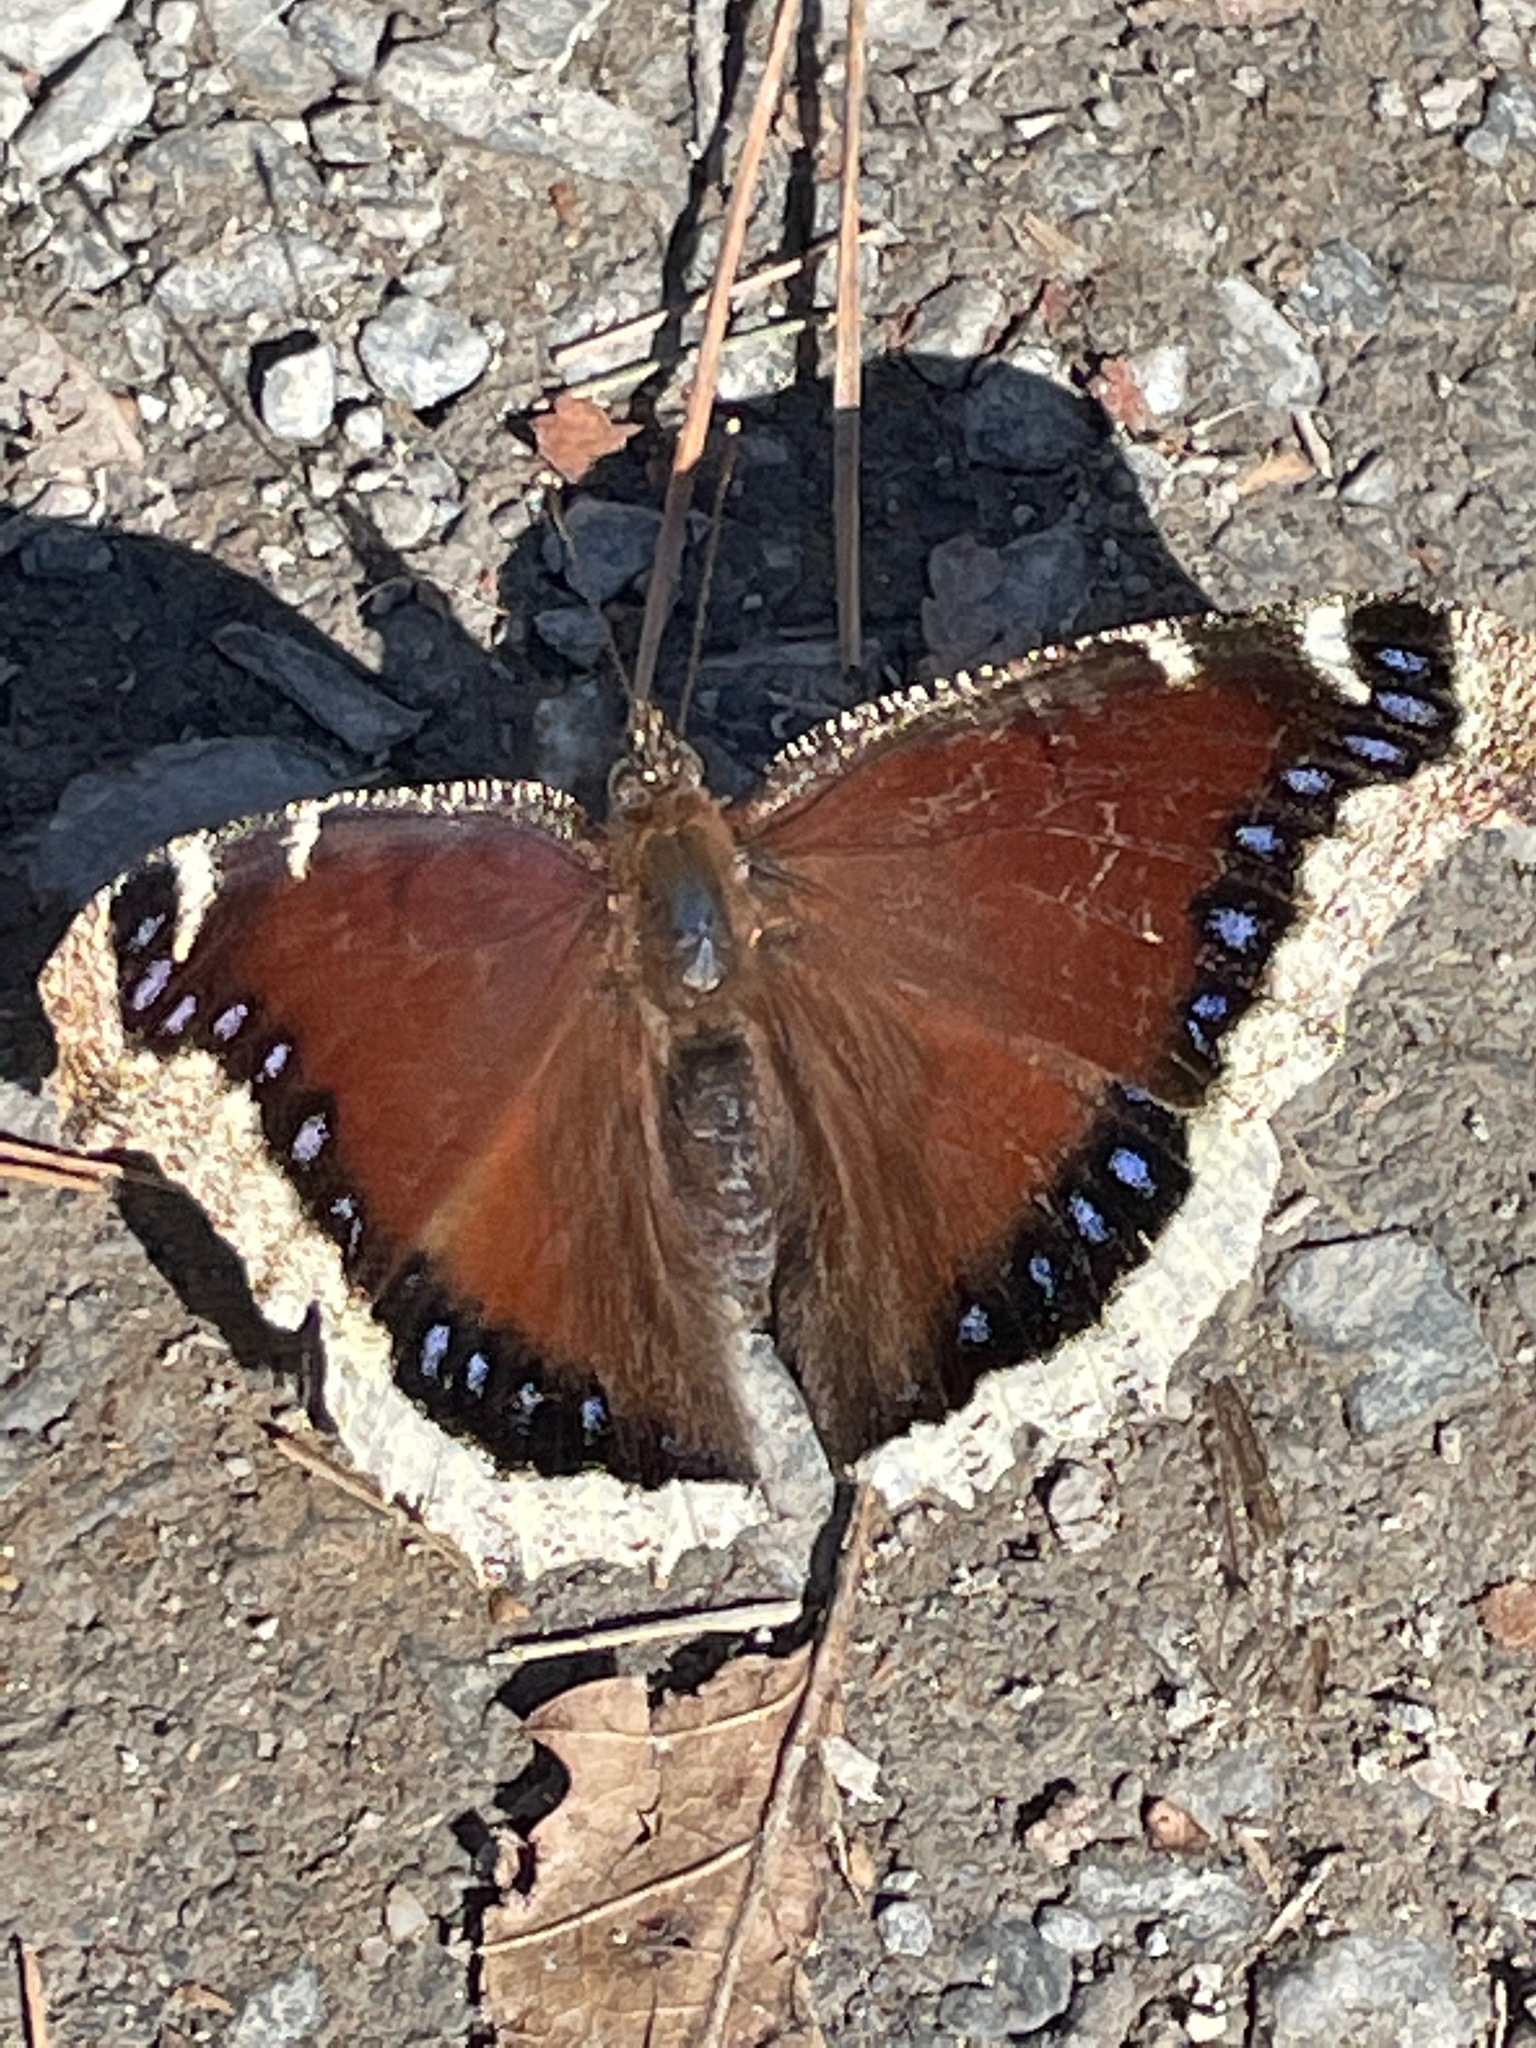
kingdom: Animalia
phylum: Arthropoda
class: Insecta
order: Lepidoptera
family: Nymphalidae
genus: Nymphalis
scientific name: Nymphalis antiopa
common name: Camberwell beauty
